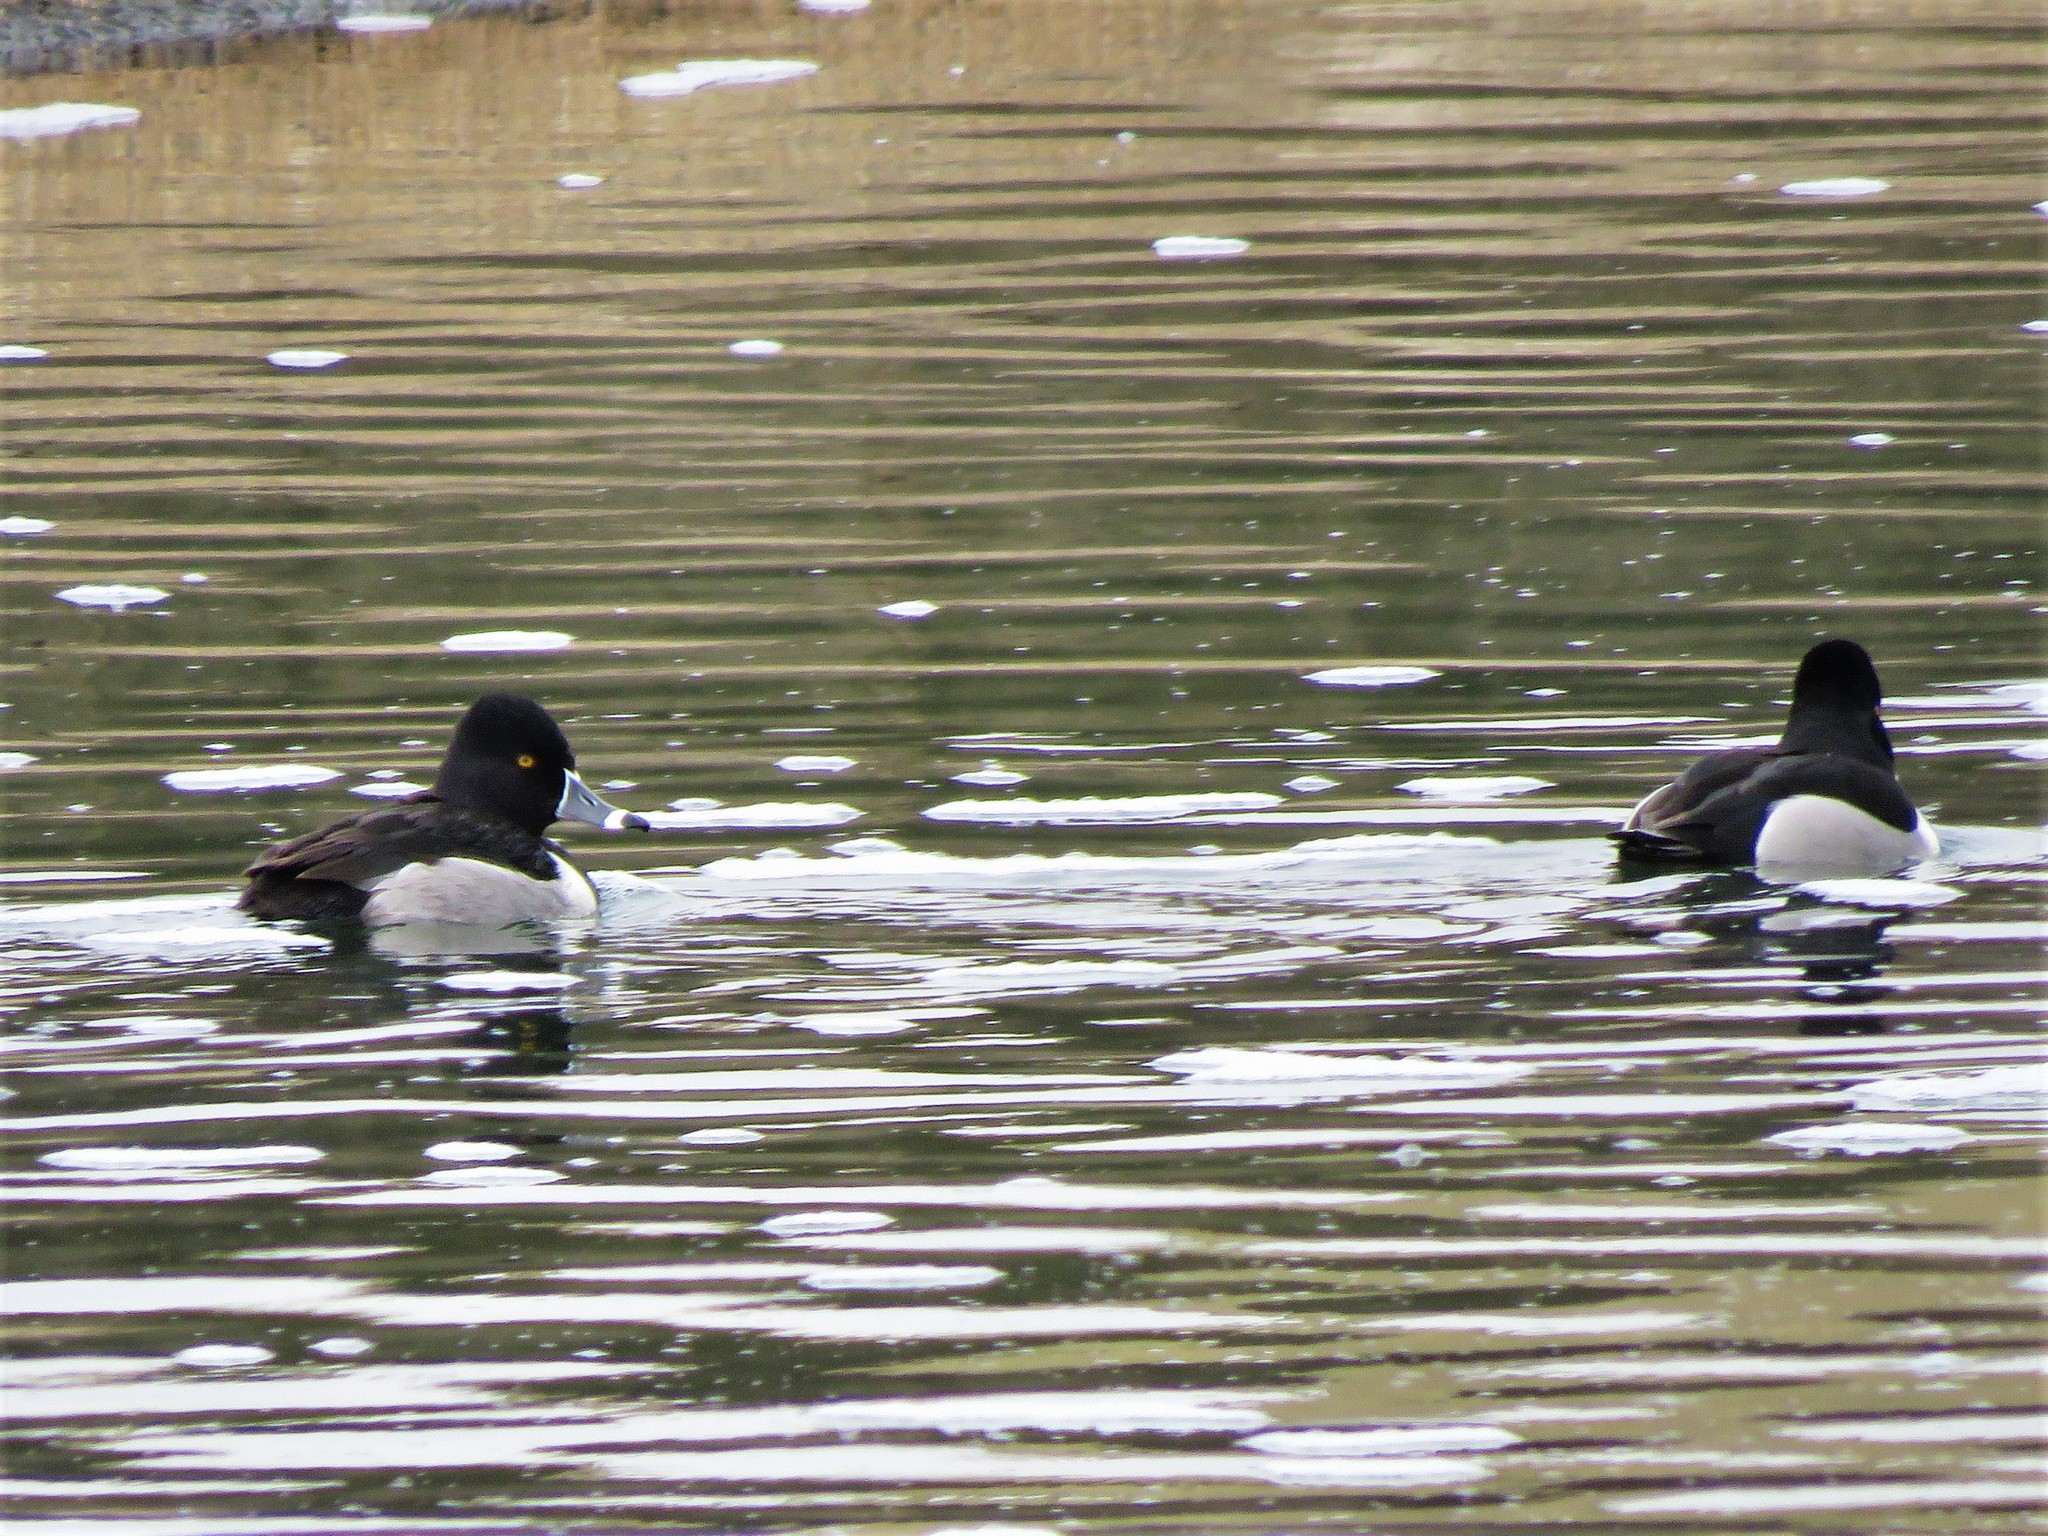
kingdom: Animalia
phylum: Chordata
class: Aves
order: Anseriformes
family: Anatidae
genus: Aythya
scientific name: Aythya collaris
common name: Ring-necked duck
